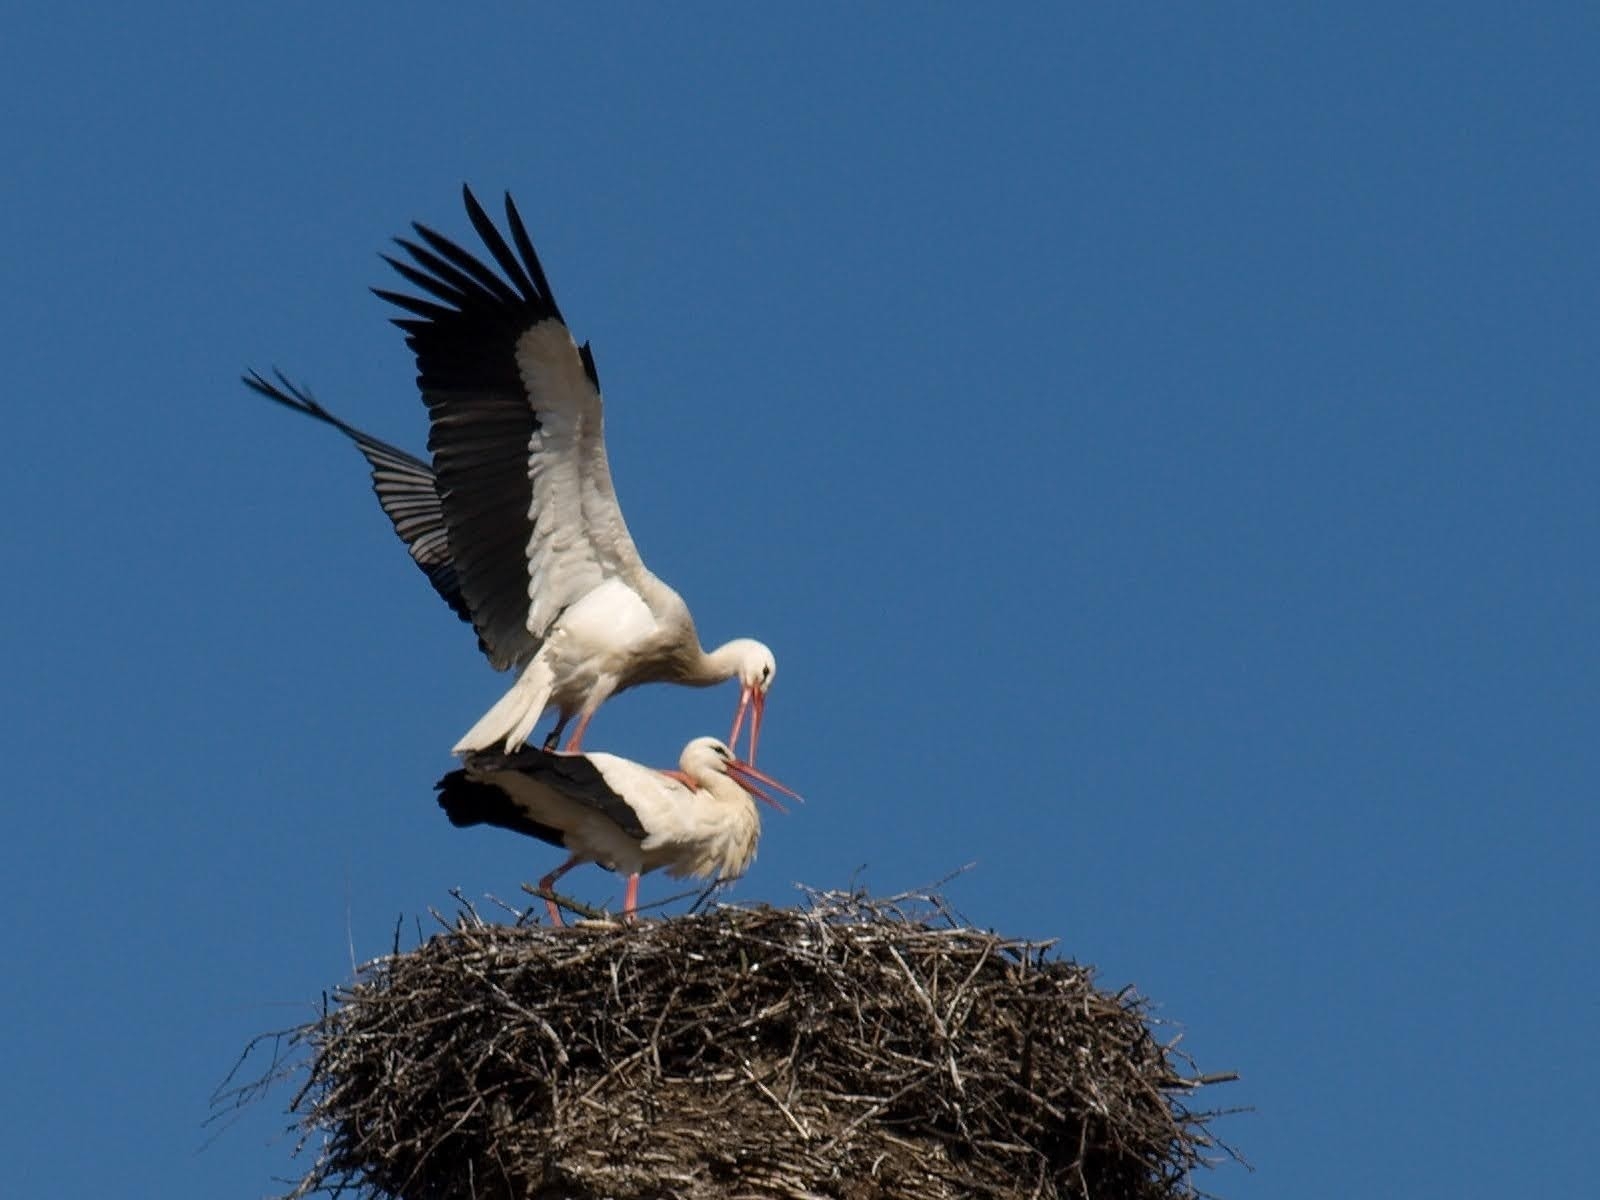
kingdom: Animalia
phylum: Chordata
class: Aves
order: Ciconiiformes
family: Ciconiidae
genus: Ciconia
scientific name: Ciconia ciconia
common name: White stork
